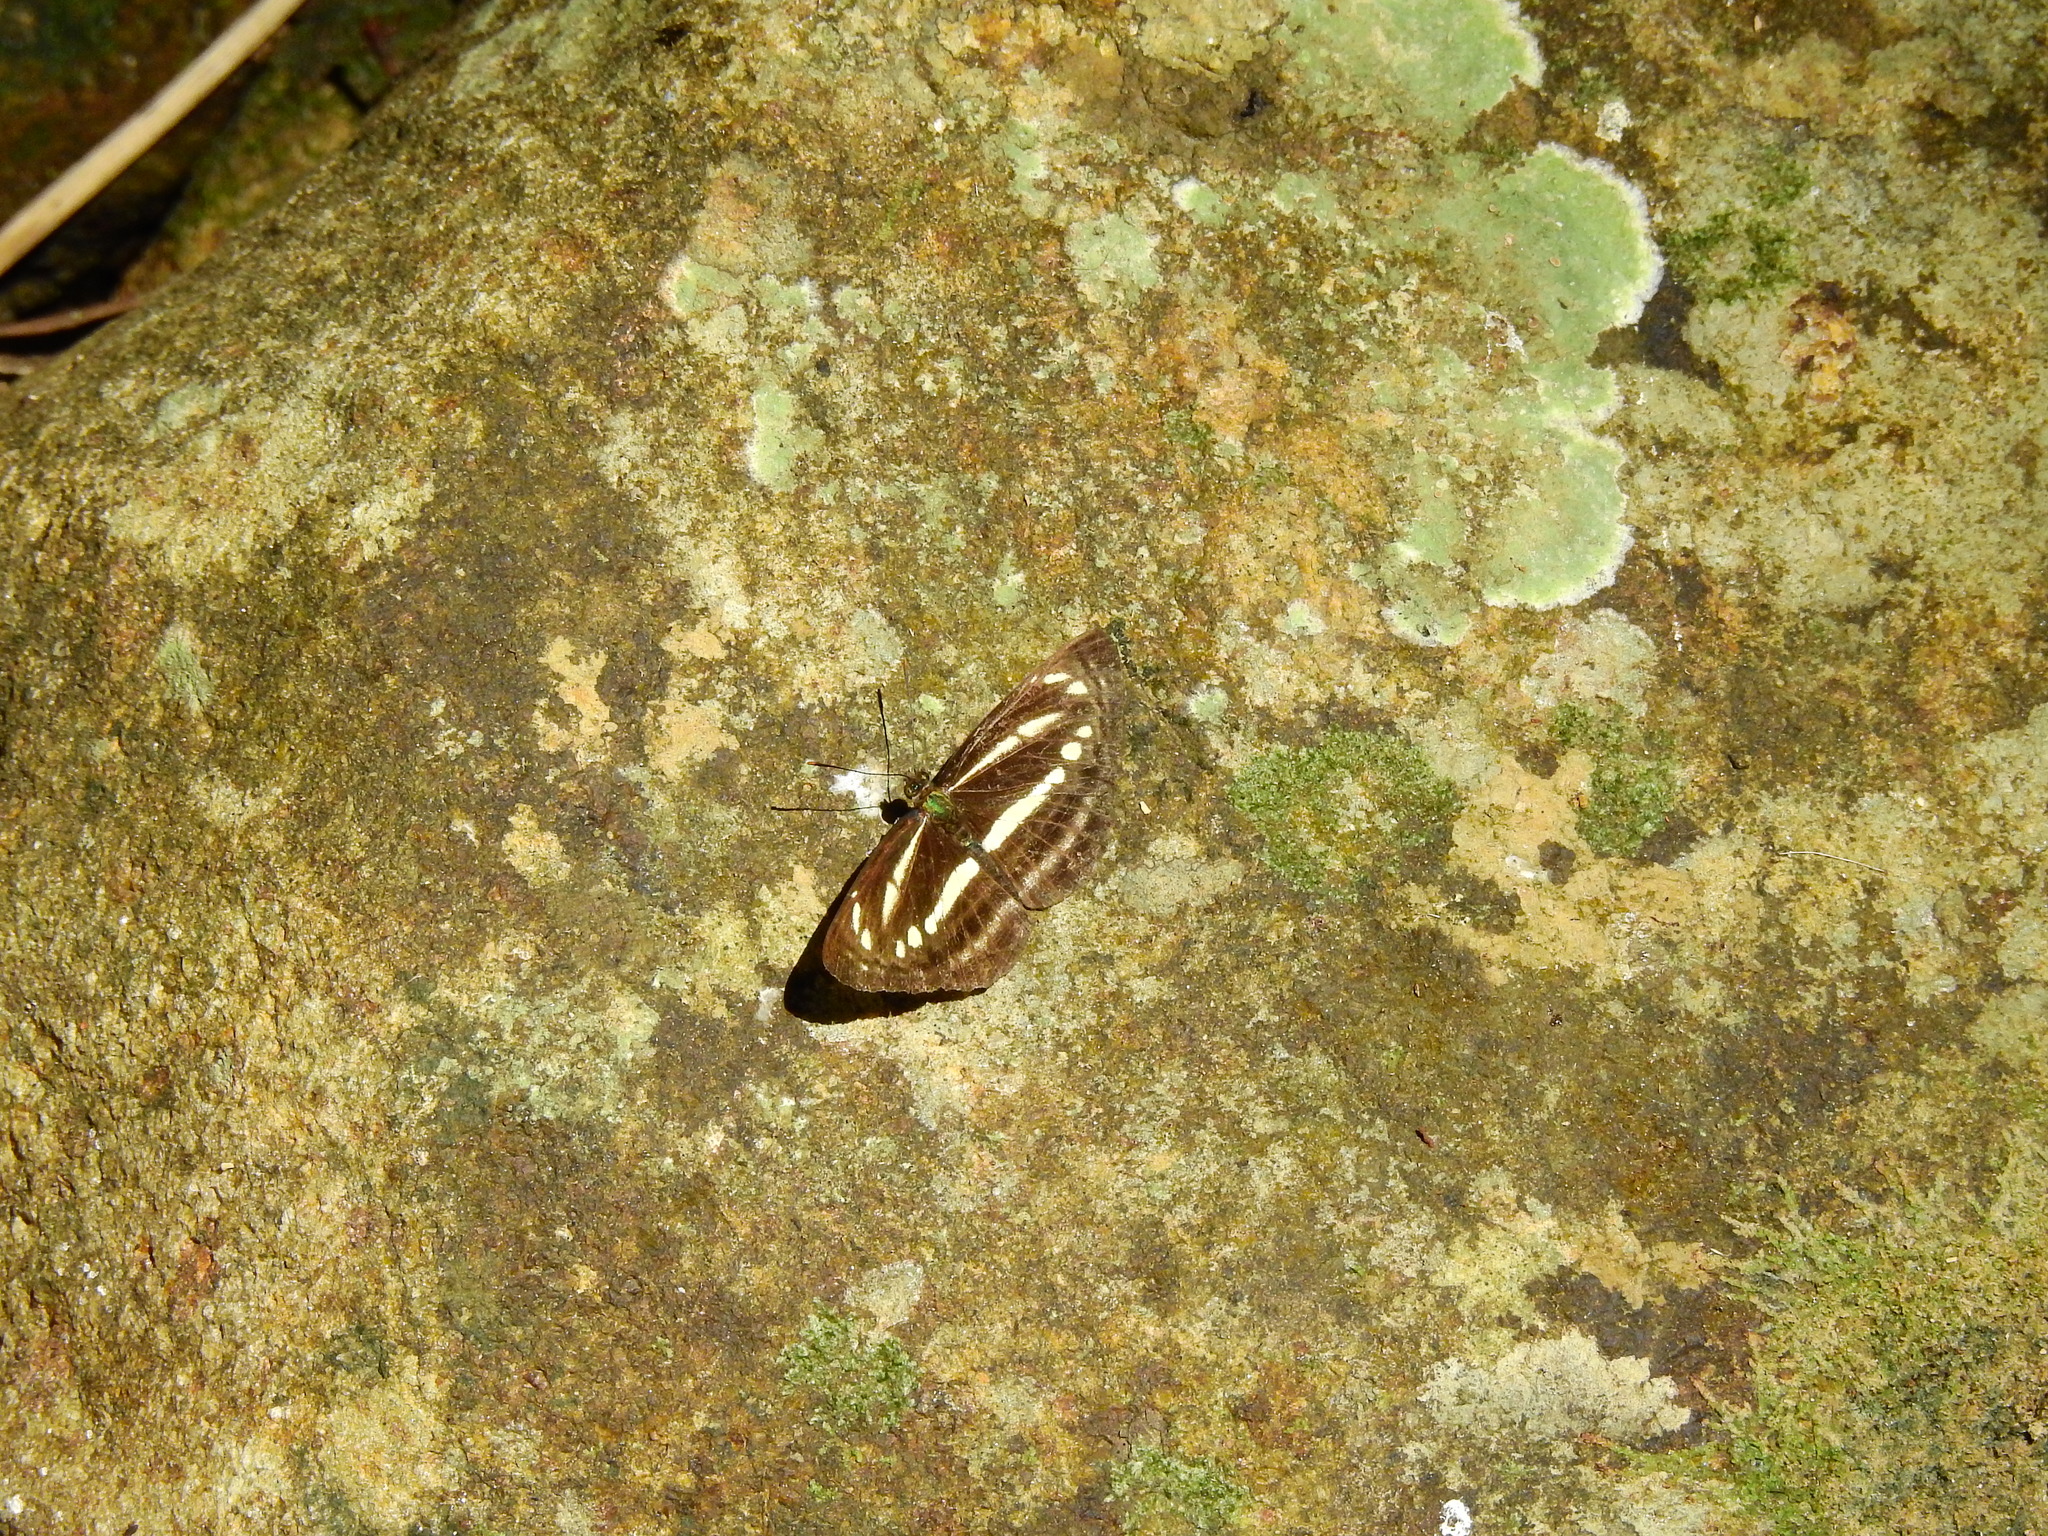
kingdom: Animalia
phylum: Arthropoda
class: Insecta
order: Lepidoptera
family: Nymphalidae
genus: Neptis
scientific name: Neptis clinia
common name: Southern sullied sailer
